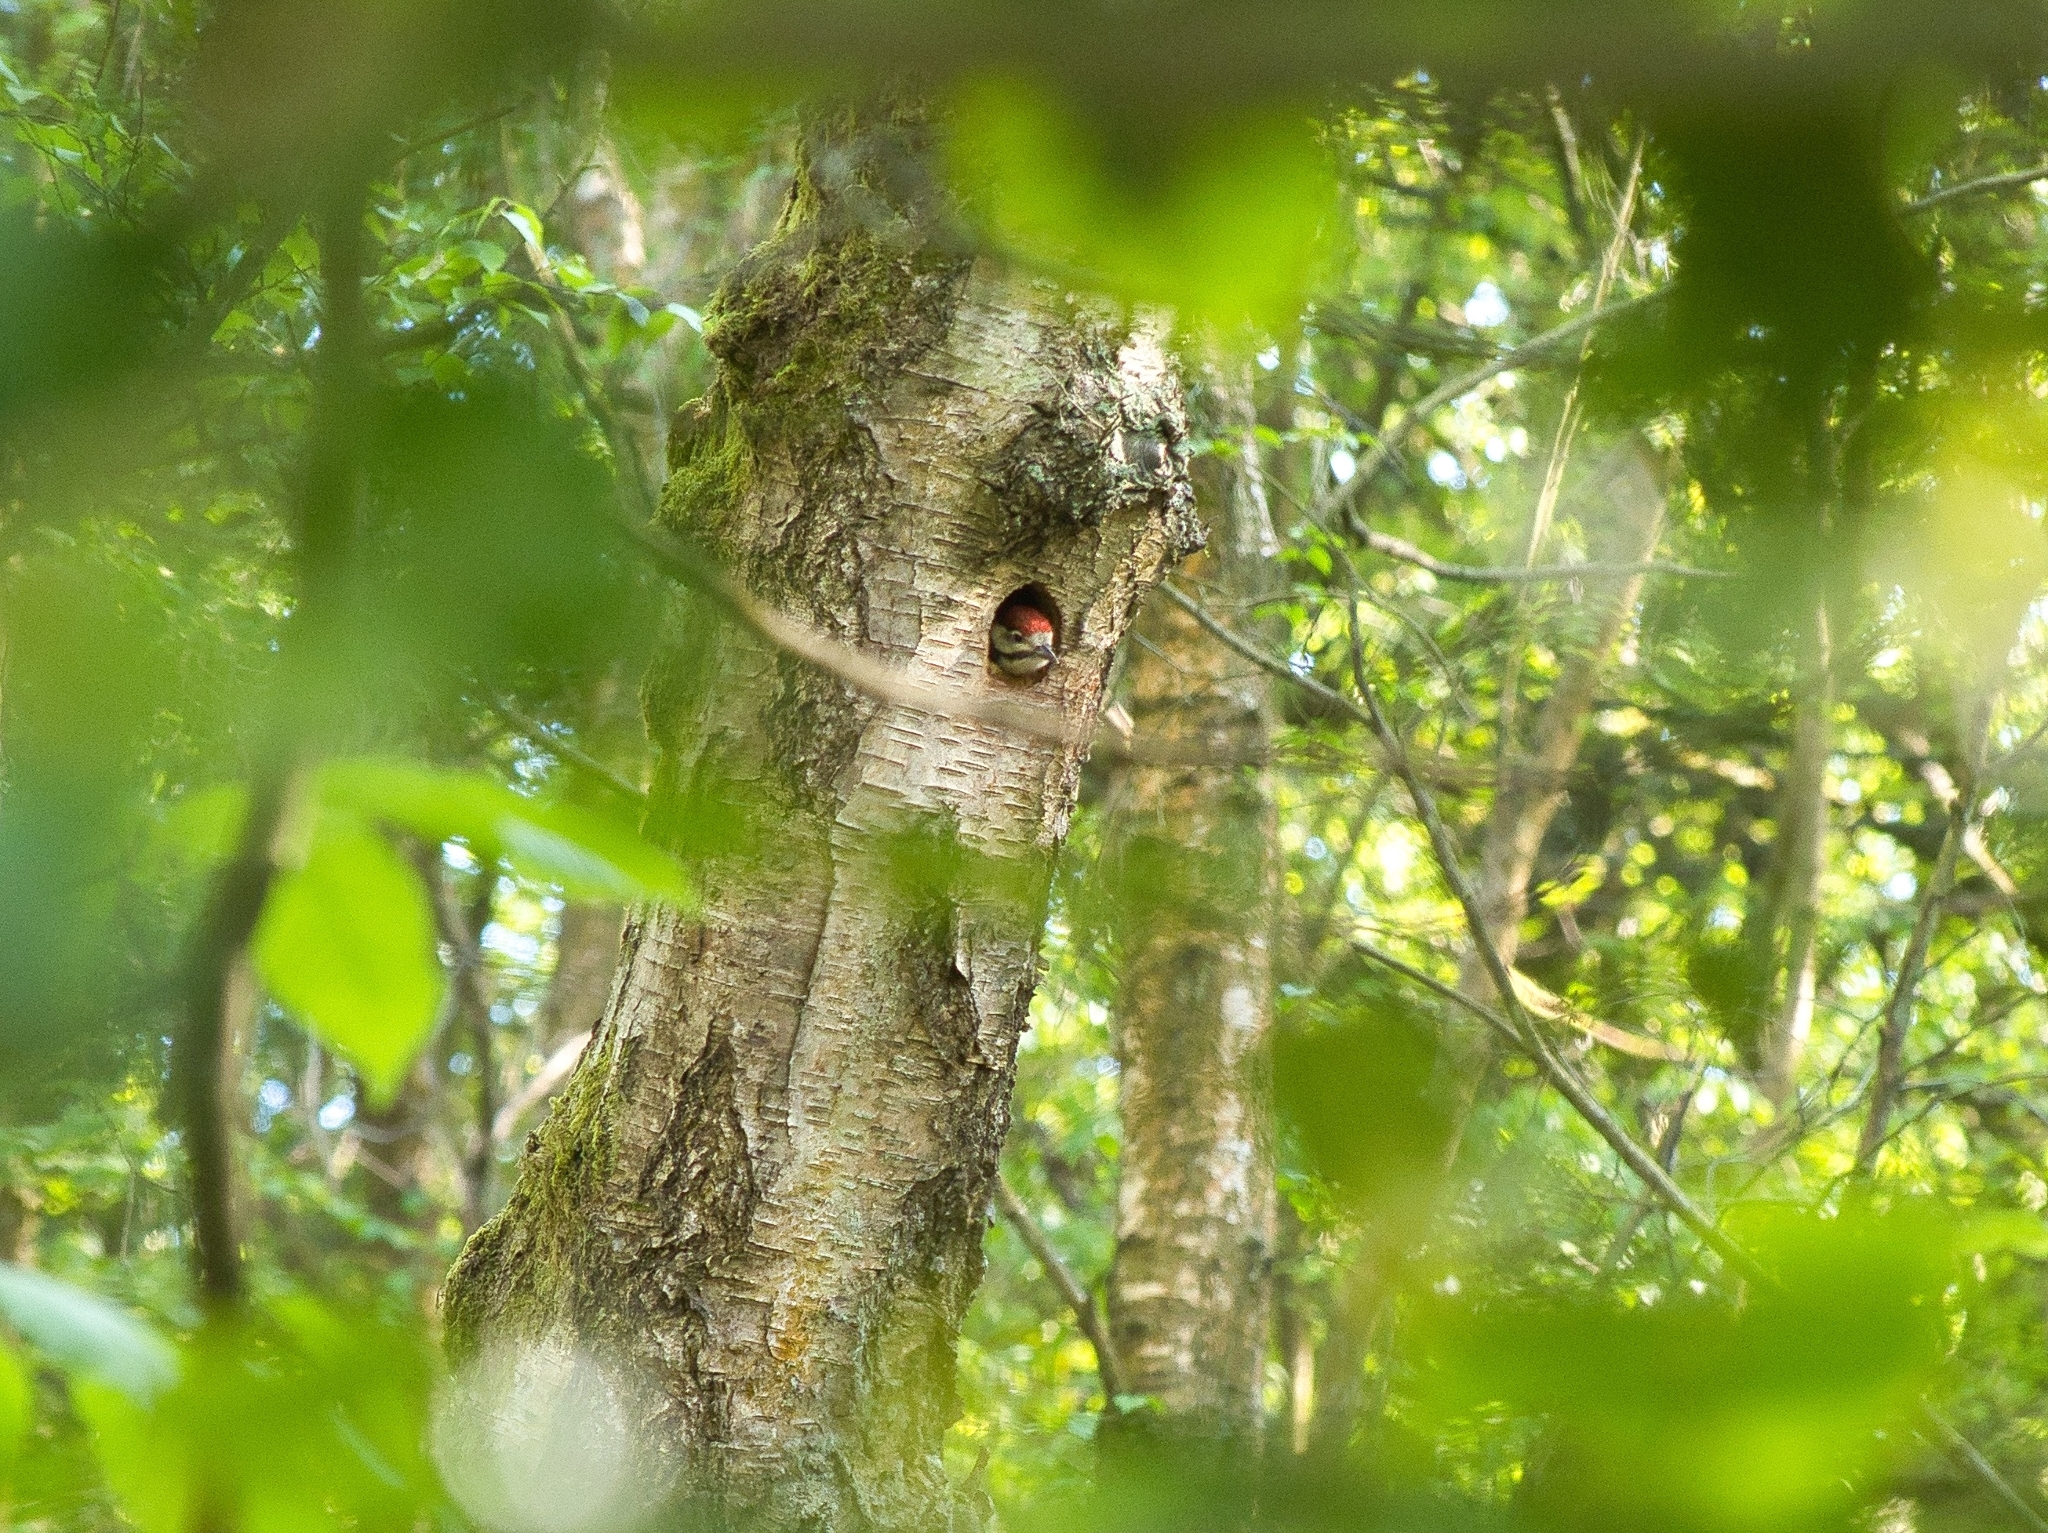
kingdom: Animalia
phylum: Chordata
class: Aves
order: Piciformes
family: Picidae
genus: Dendrocopos
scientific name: Dendrocopos major
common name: Great spotted woodpecker
